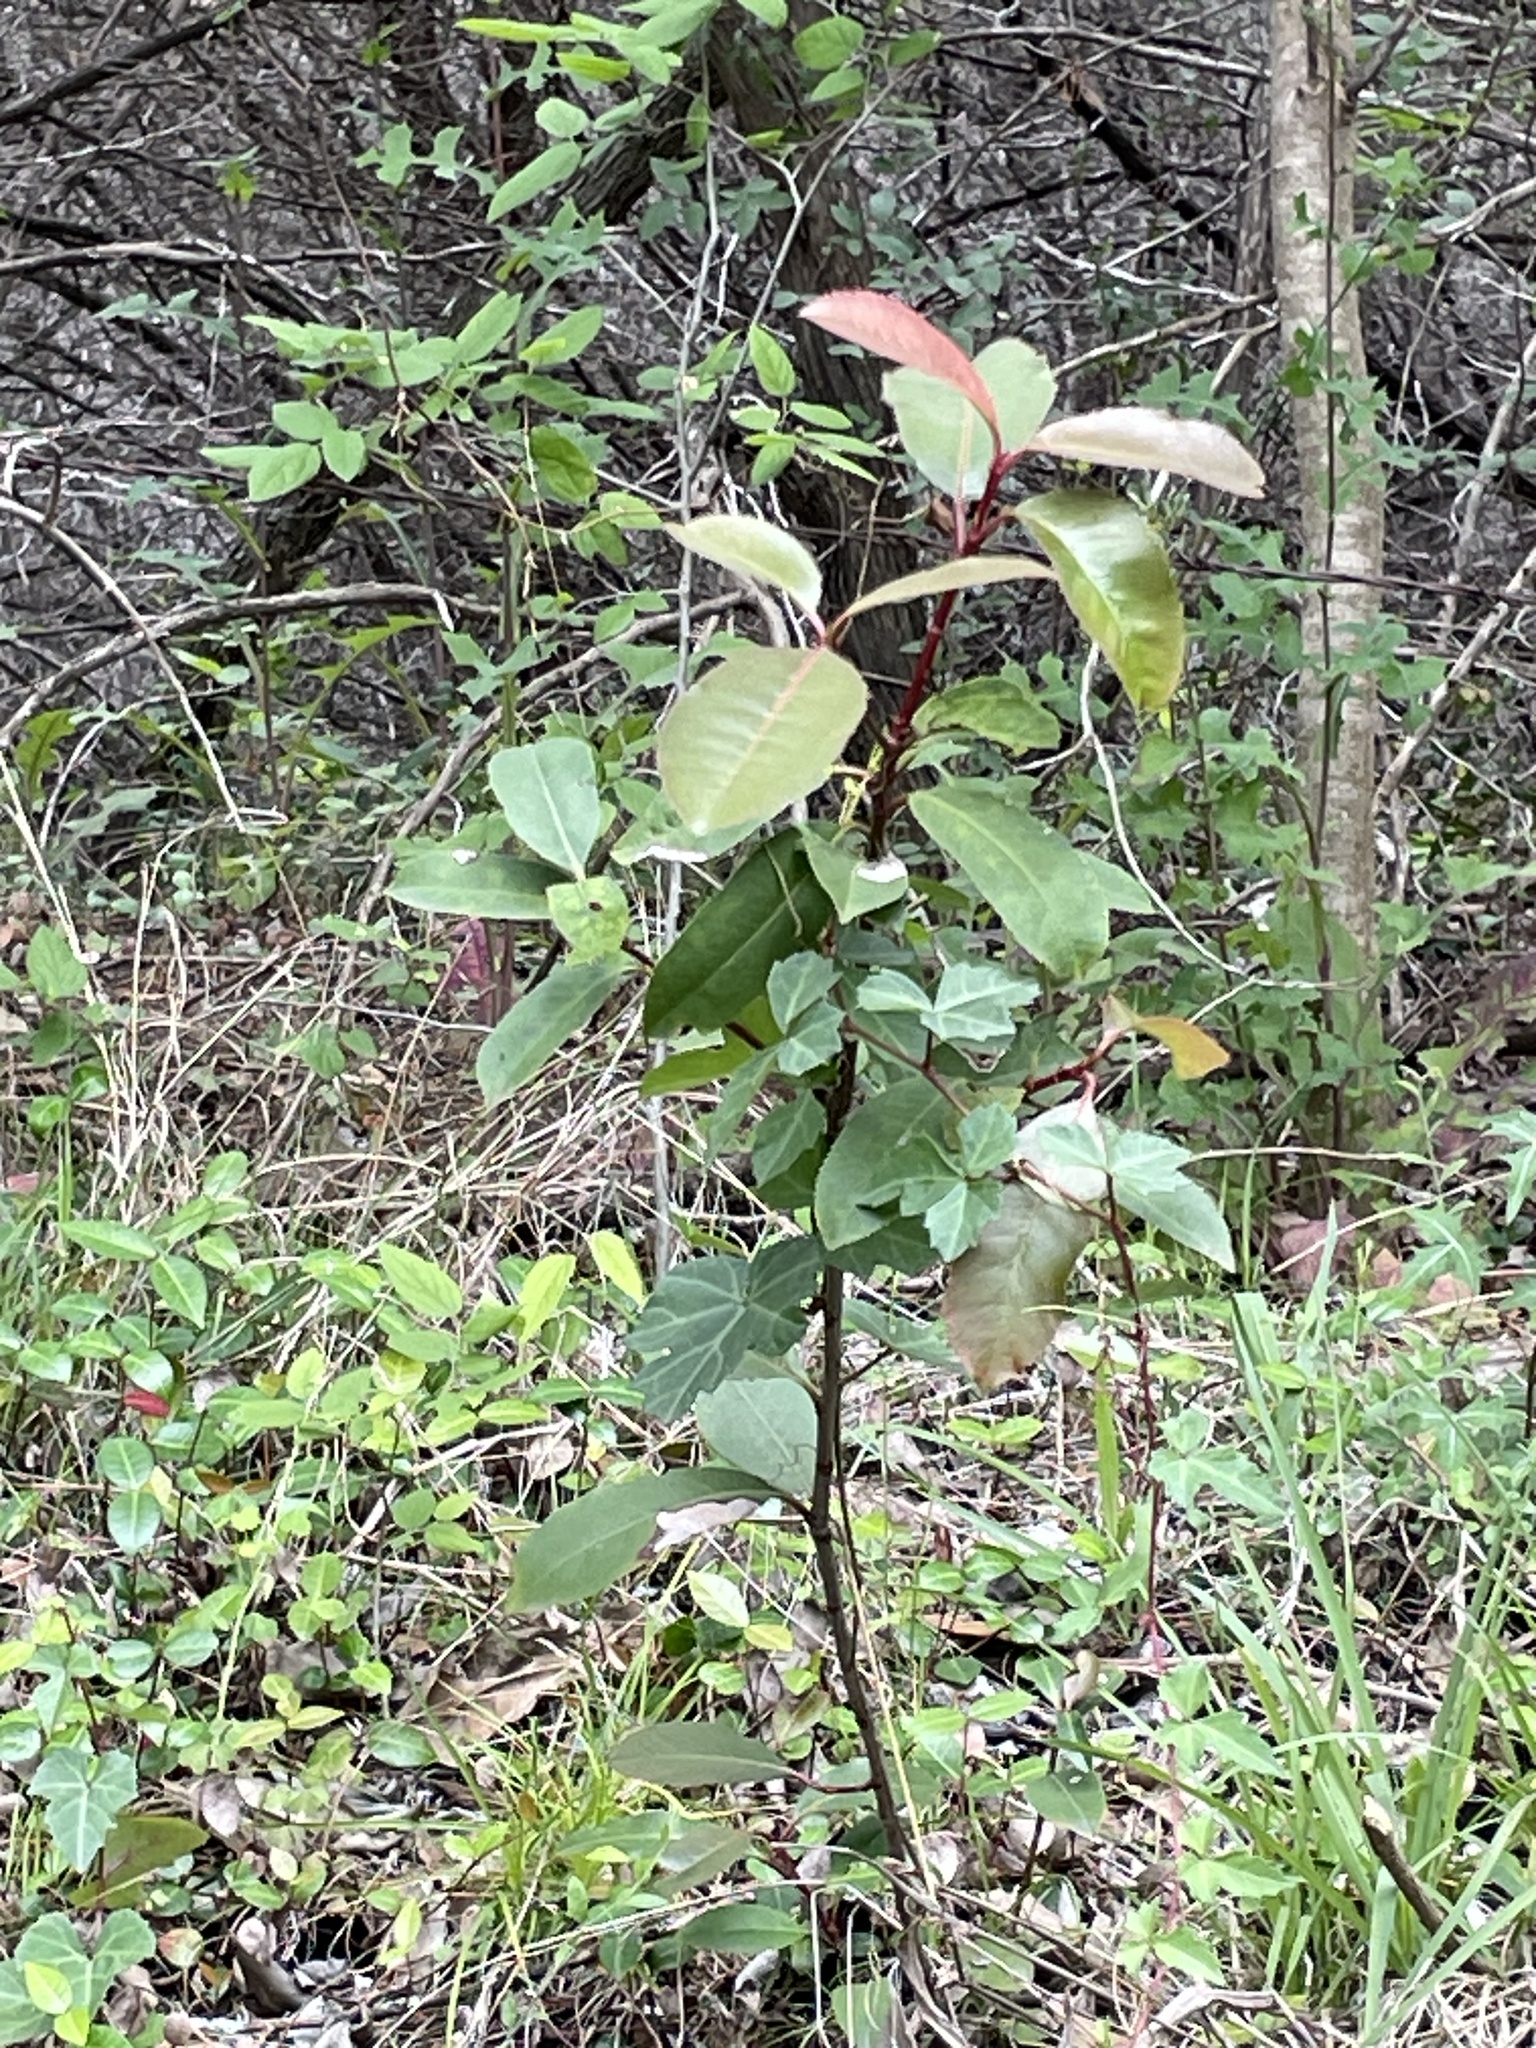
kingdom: Plantae
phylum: Tracheophyta
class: Magnoliopsida
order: Rosales
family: Rosaceae
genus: Photinia
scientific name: Photinia serratifolia
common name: Taiwanese photinia
